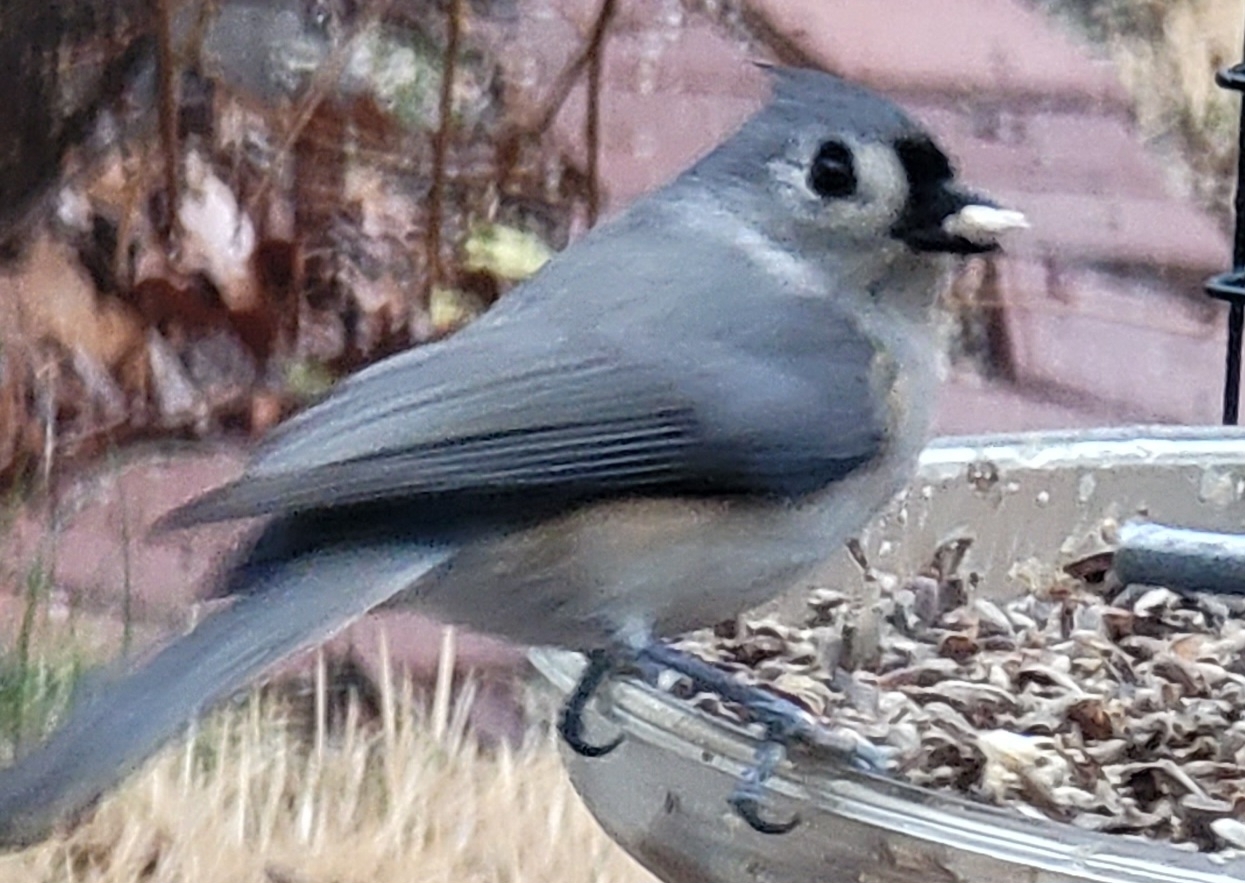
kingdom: Animalia
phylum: Chordata
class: Aves
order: Passeriformes
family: Paridae
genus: Baeolophus
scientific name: Baeolophus bicolor
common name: Tufted titmouse
